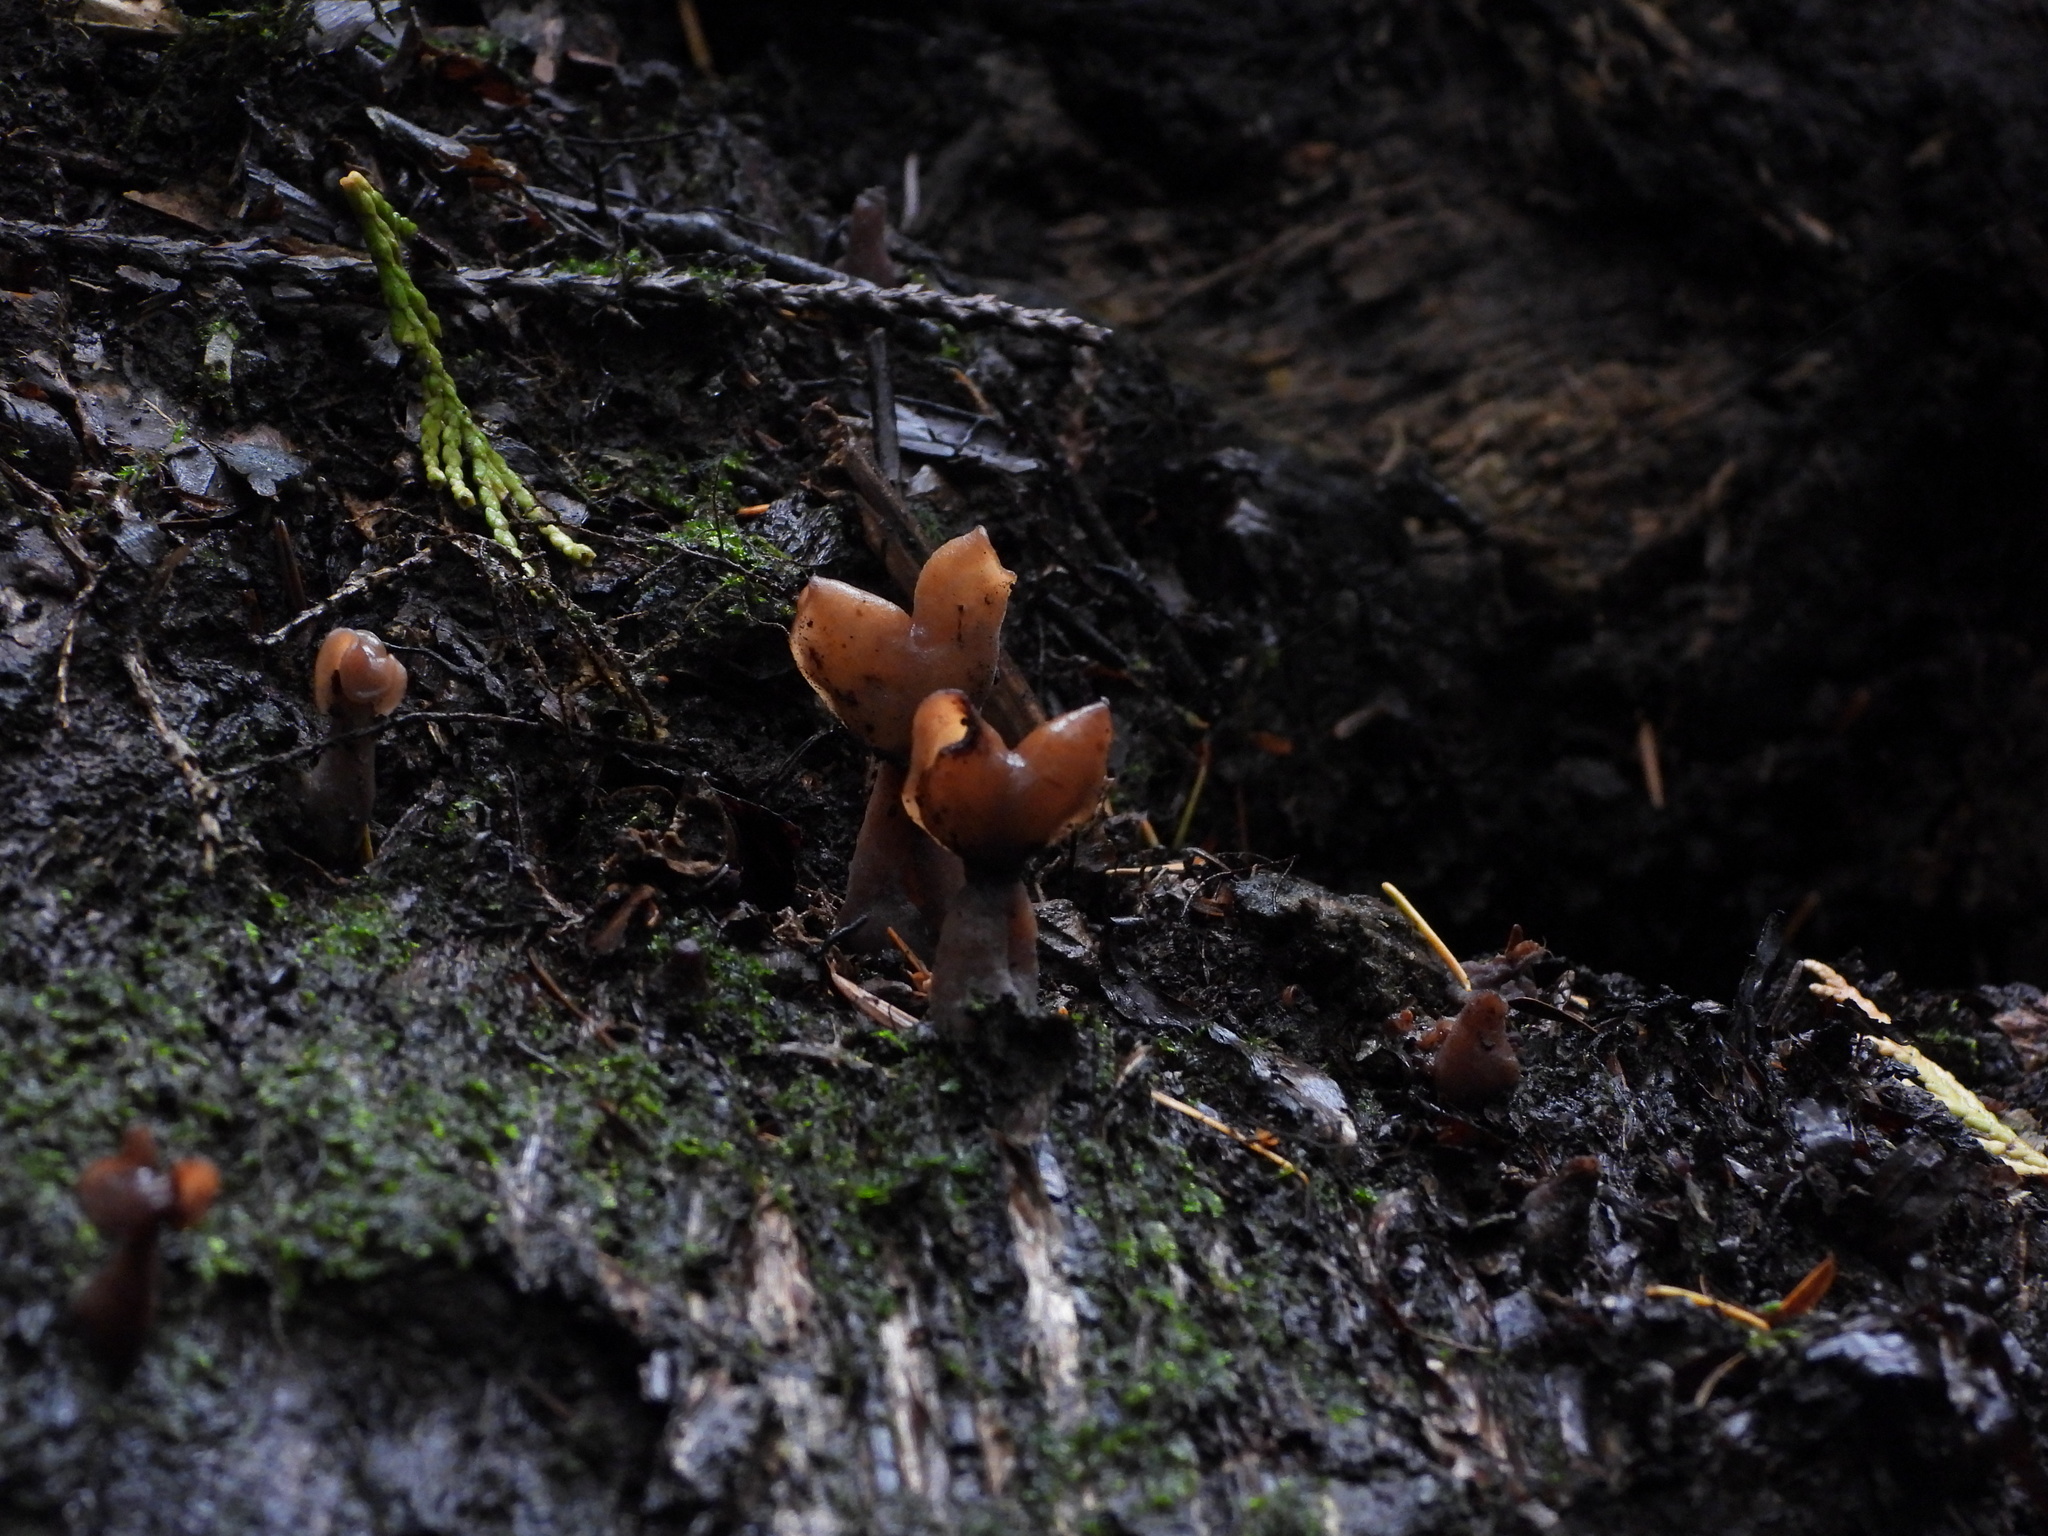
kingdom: Fungi
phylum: Ascomycota
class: Pezizomycetes
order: Pezizales
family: Discinaceae
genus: Gyromitra
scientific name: Gyromitra infula
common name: Pouched false morel
